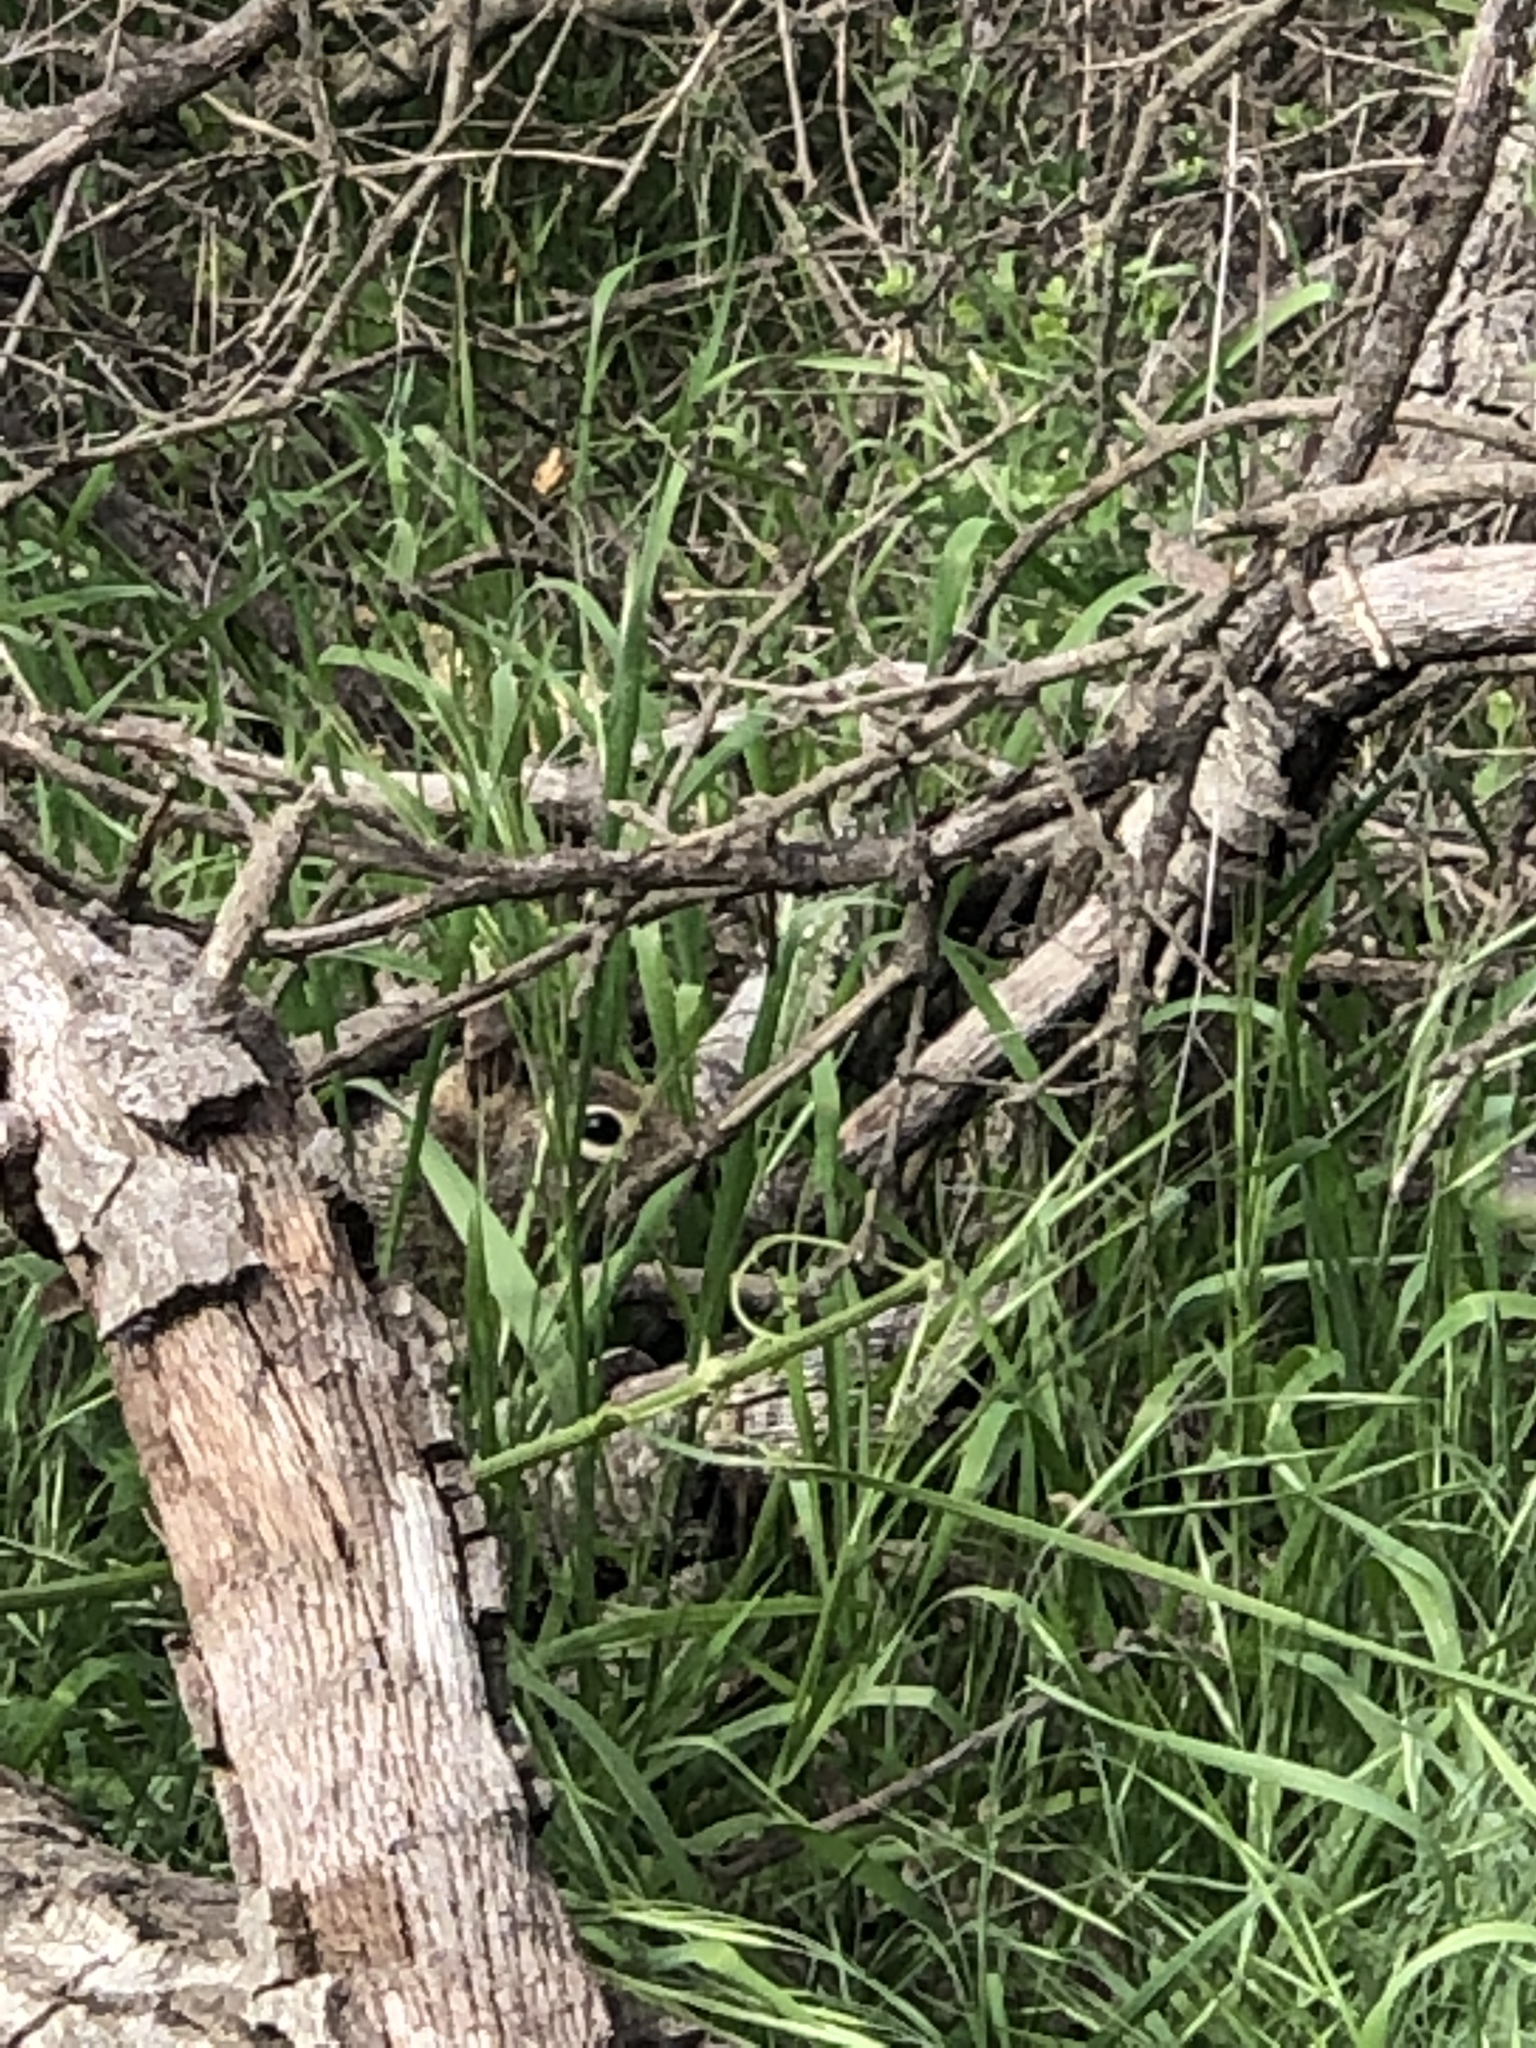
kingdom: Animalia
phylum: Chordata
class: Mammalia
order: Rodentia
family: Sciuridae
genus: Otospermophilus
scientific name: Otospermophilus beecheyi
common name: California ground squirrel
